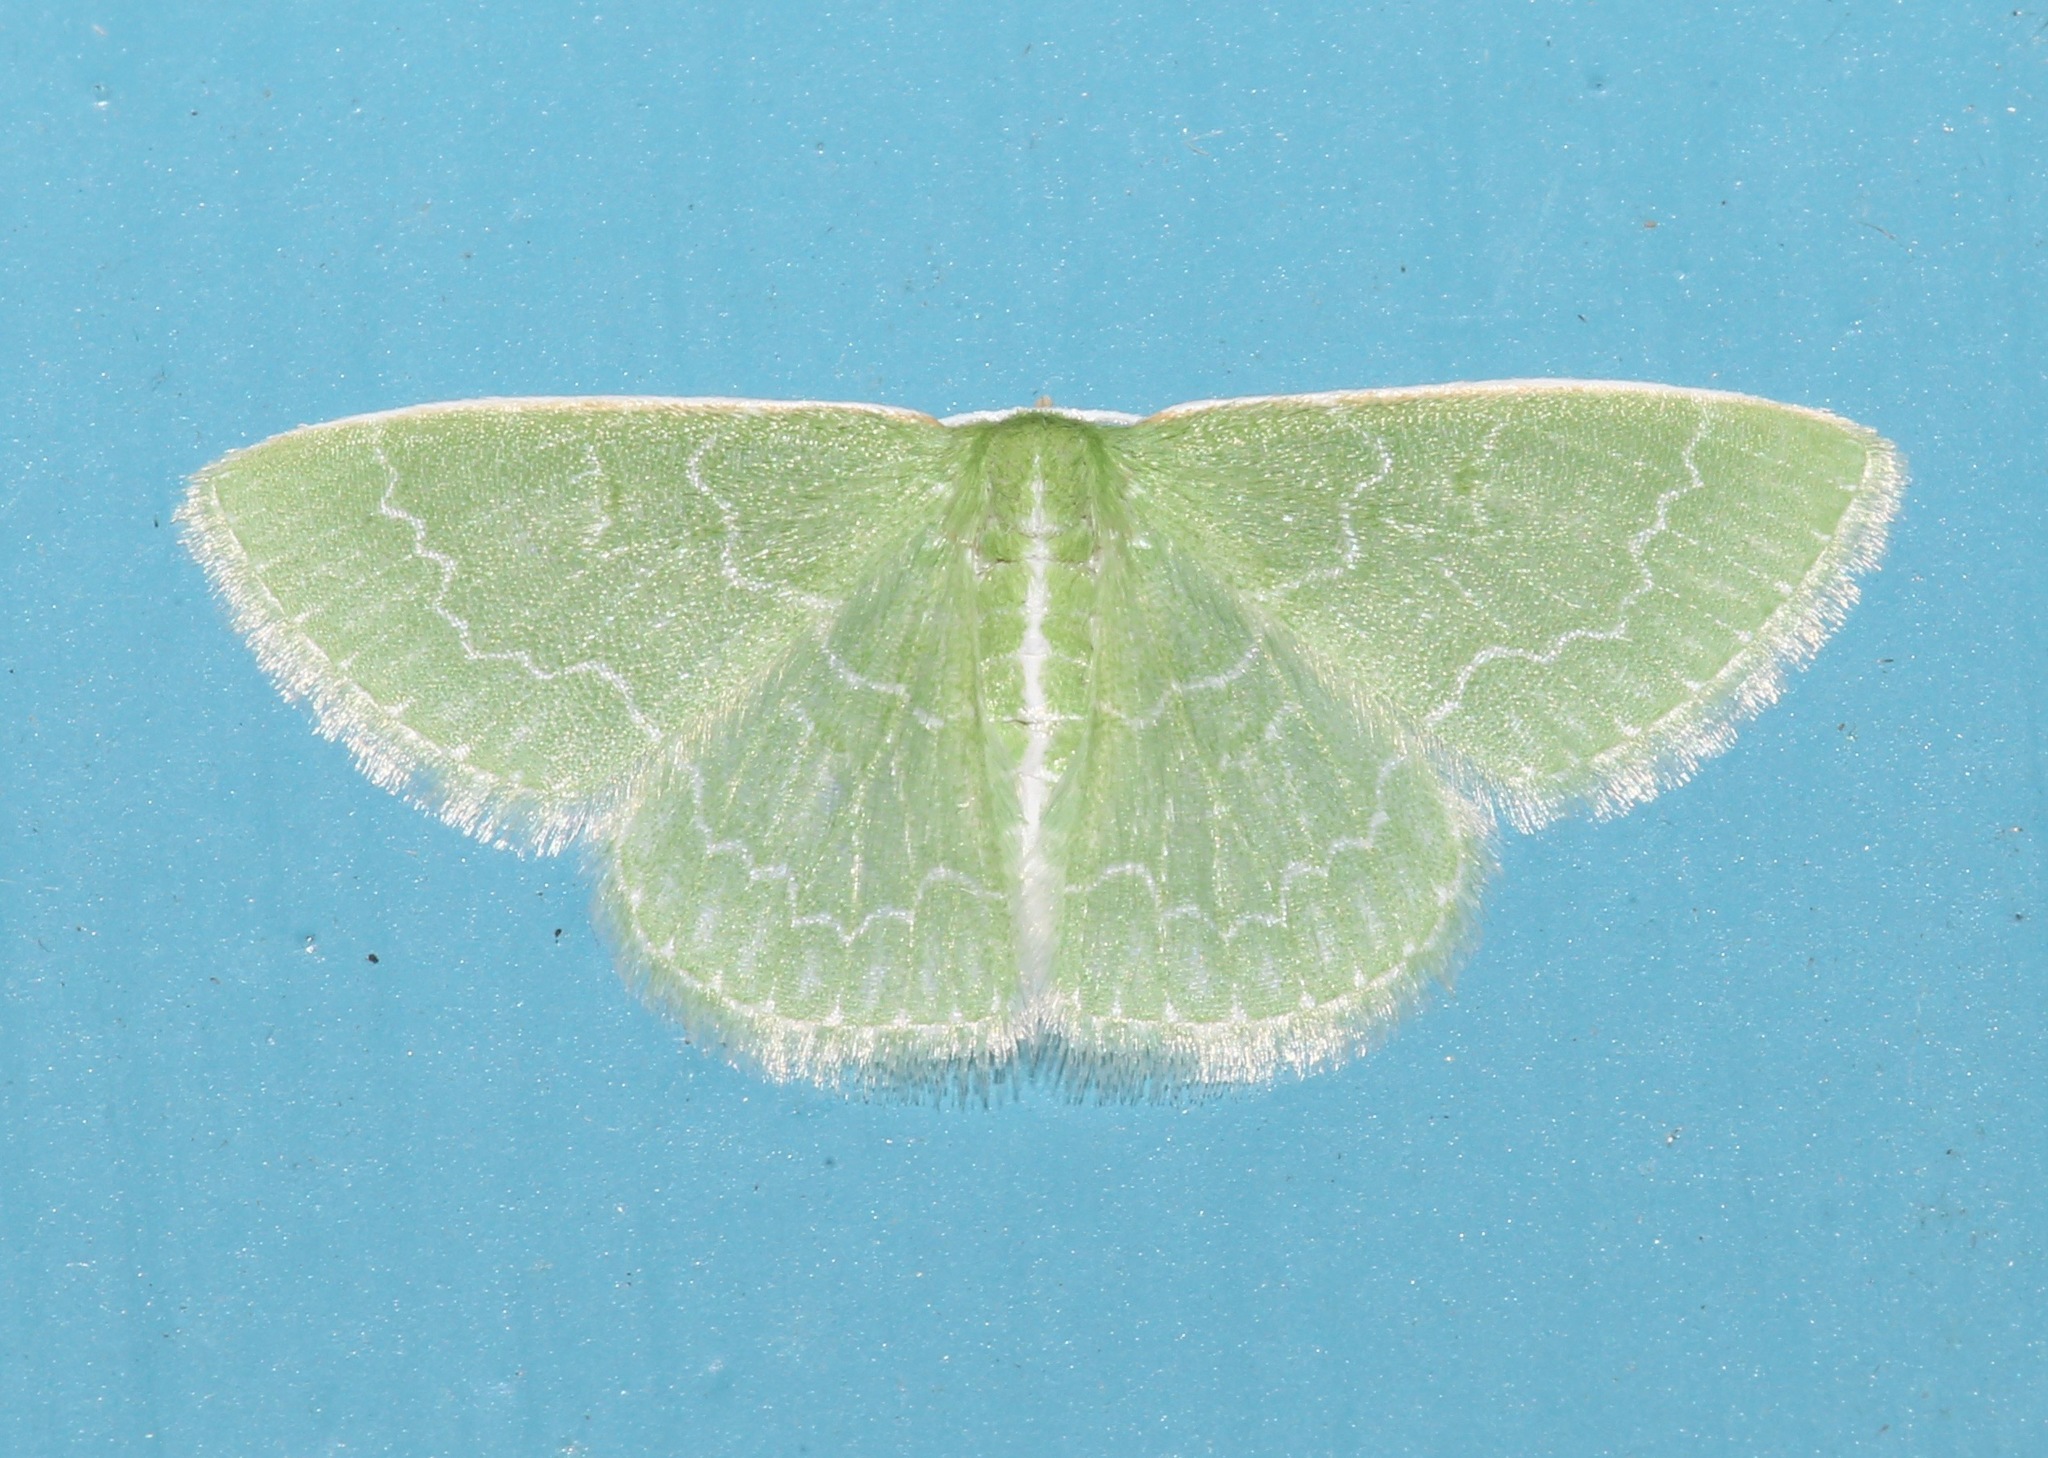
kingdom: Animalia
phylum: Arthropoda
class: Insecta
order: Lepidoptera
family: Geometridae
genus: Synchlora
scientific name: Synchlora frondaria
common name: Southern emerald
